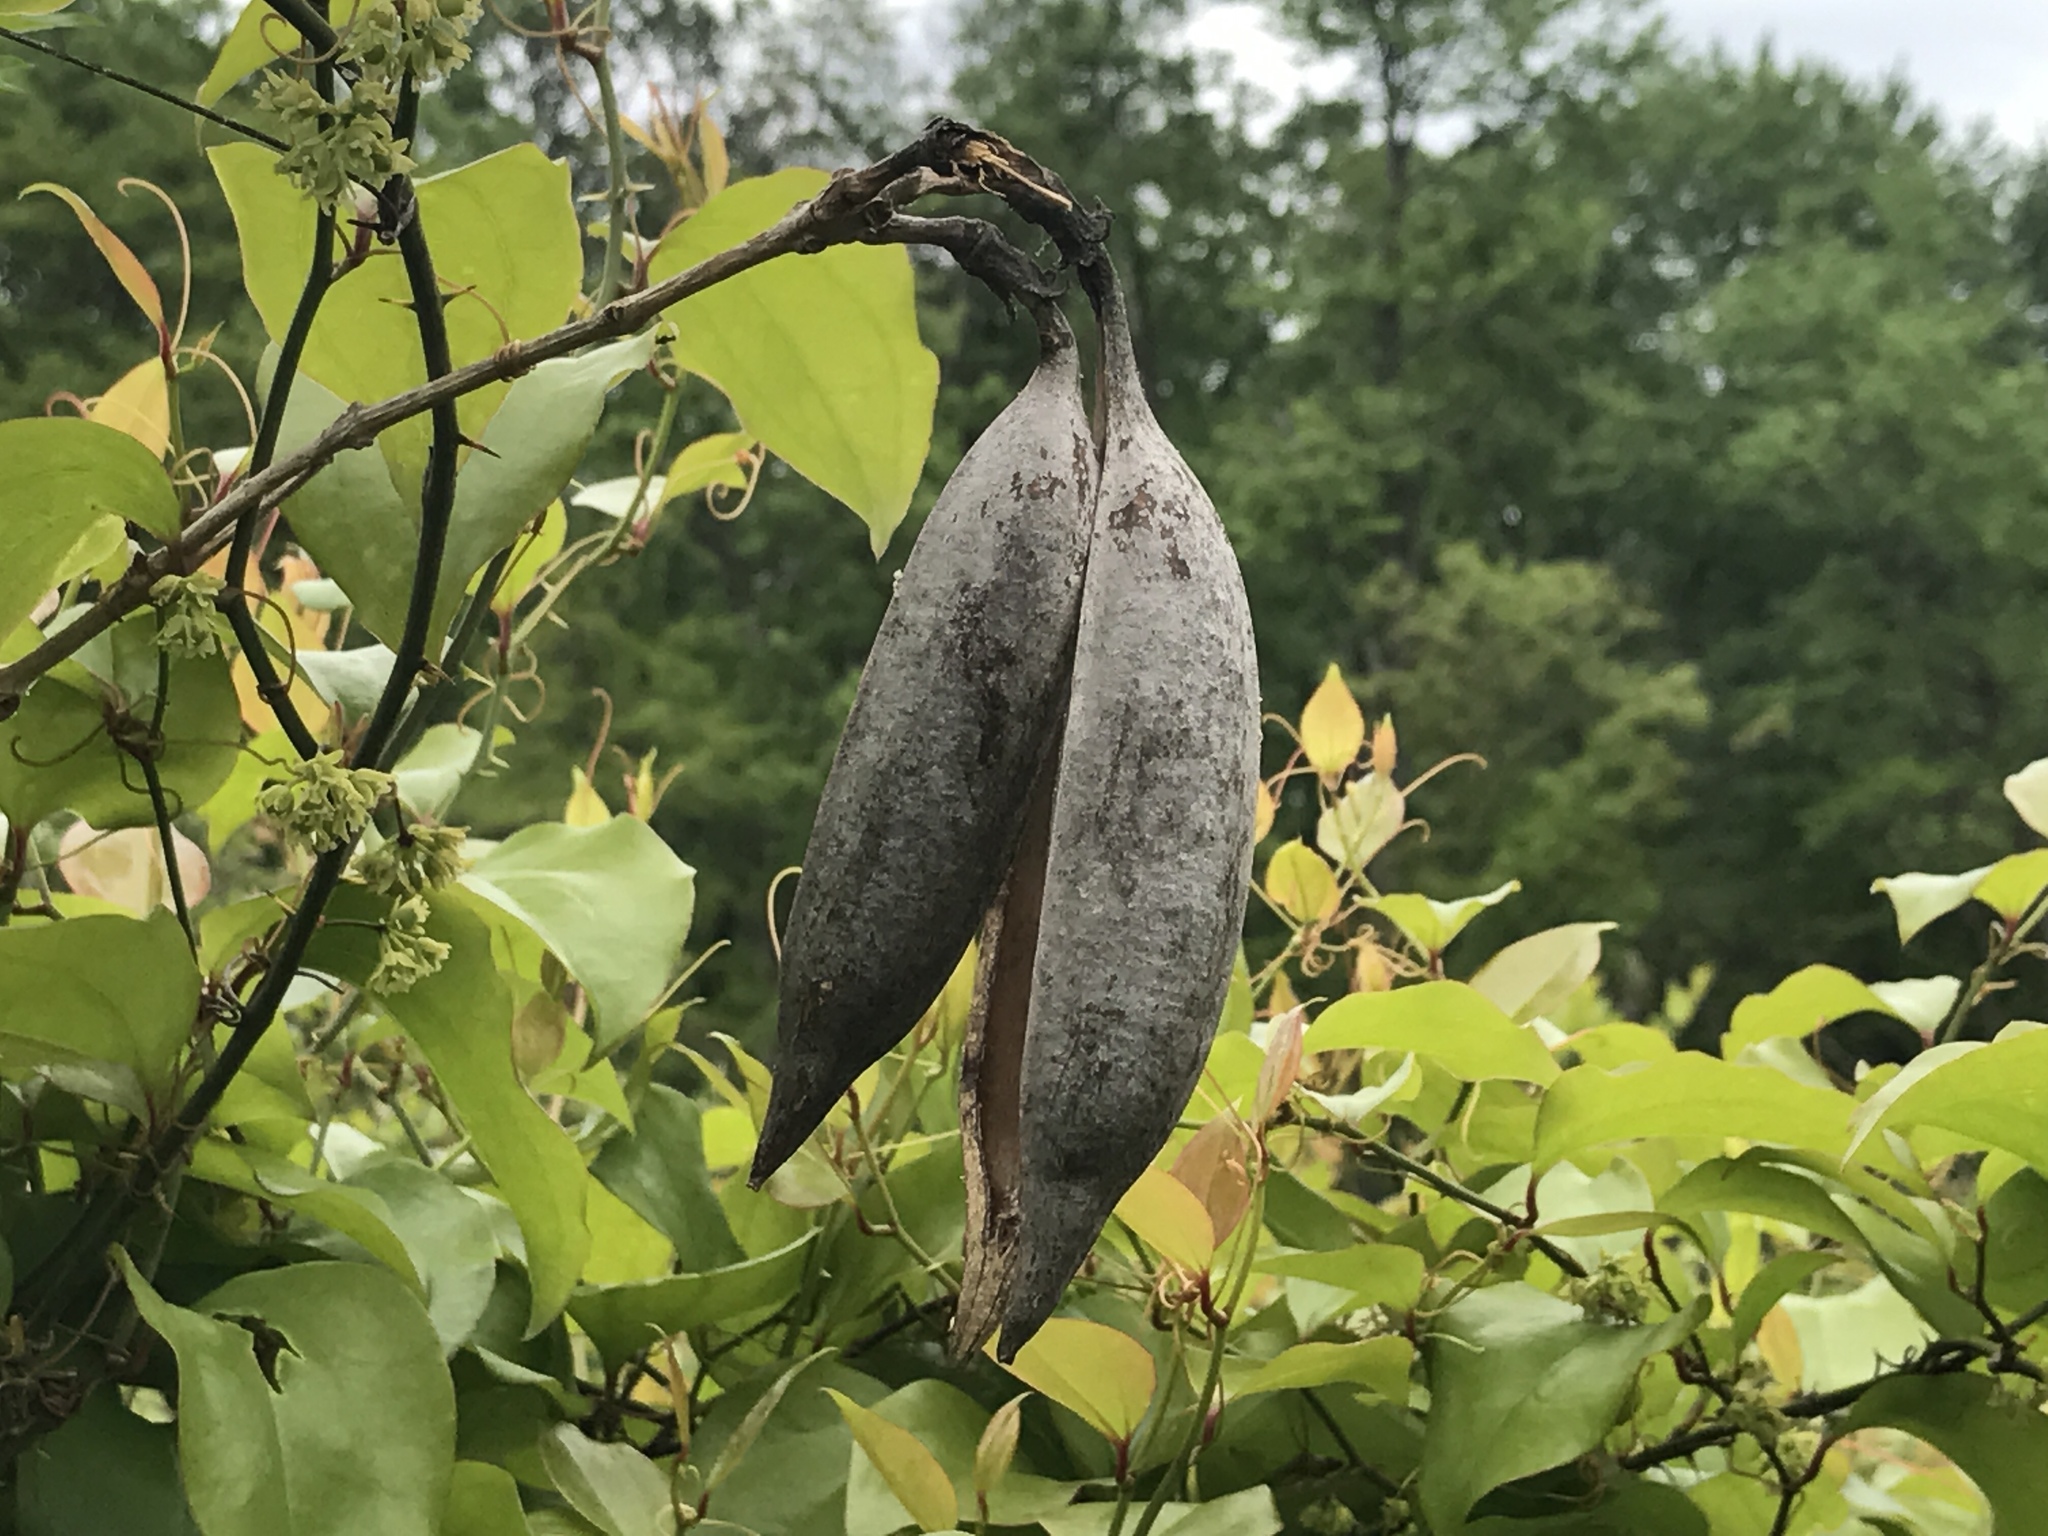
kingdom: Plantae
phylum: Tracheophyta
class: Magnoliopsida
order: Lamiales
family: Bignoniaceae
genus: Campsis
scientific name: Campsis radicans
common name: Trumpet-creeper
